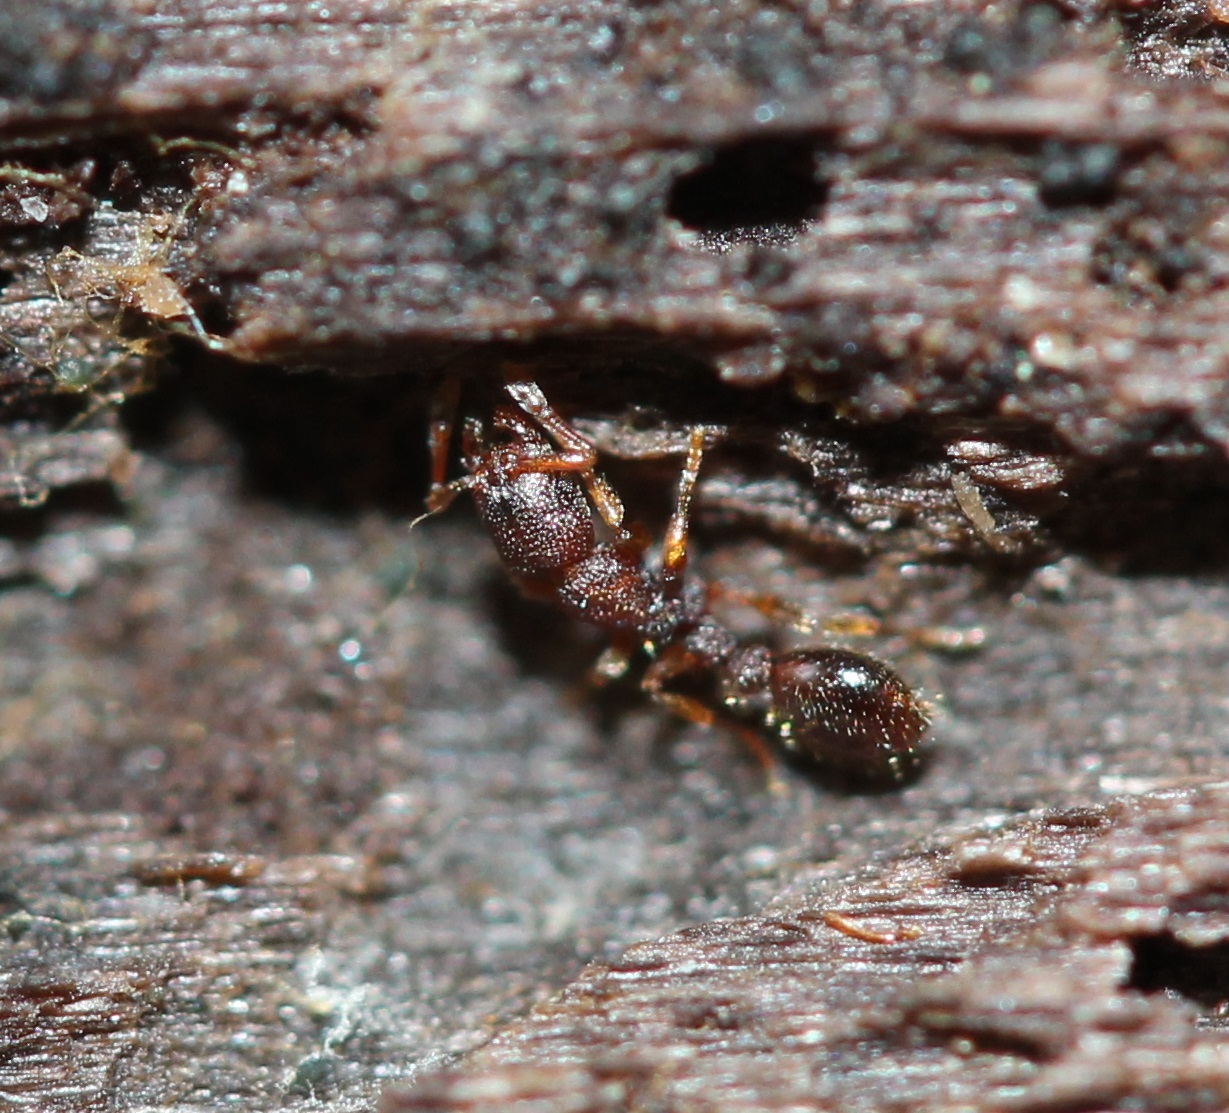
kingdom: Animalia
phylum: Arthropoda
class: Insecta
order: Hymenoptera
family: Formicidae
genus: Vollenhovia
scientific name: Vollenhovia emeryi
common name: Ant
